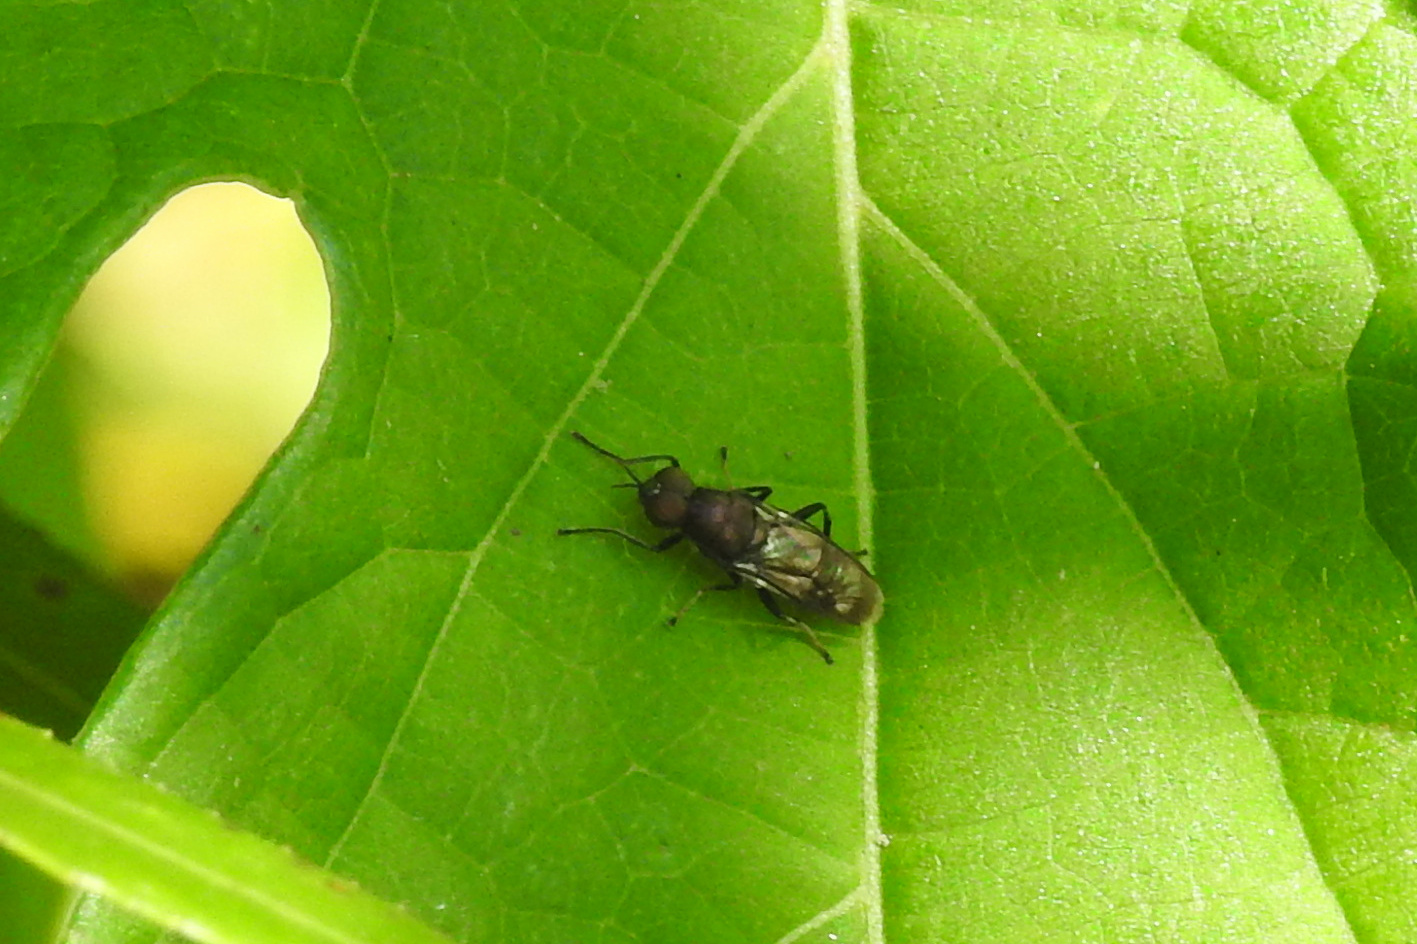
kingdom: Animalia
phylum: Arthropoda
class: Insecta
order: Diptera
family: Stratiomyidae
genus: Myxosargus
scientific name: Myxosargus nigricormis
